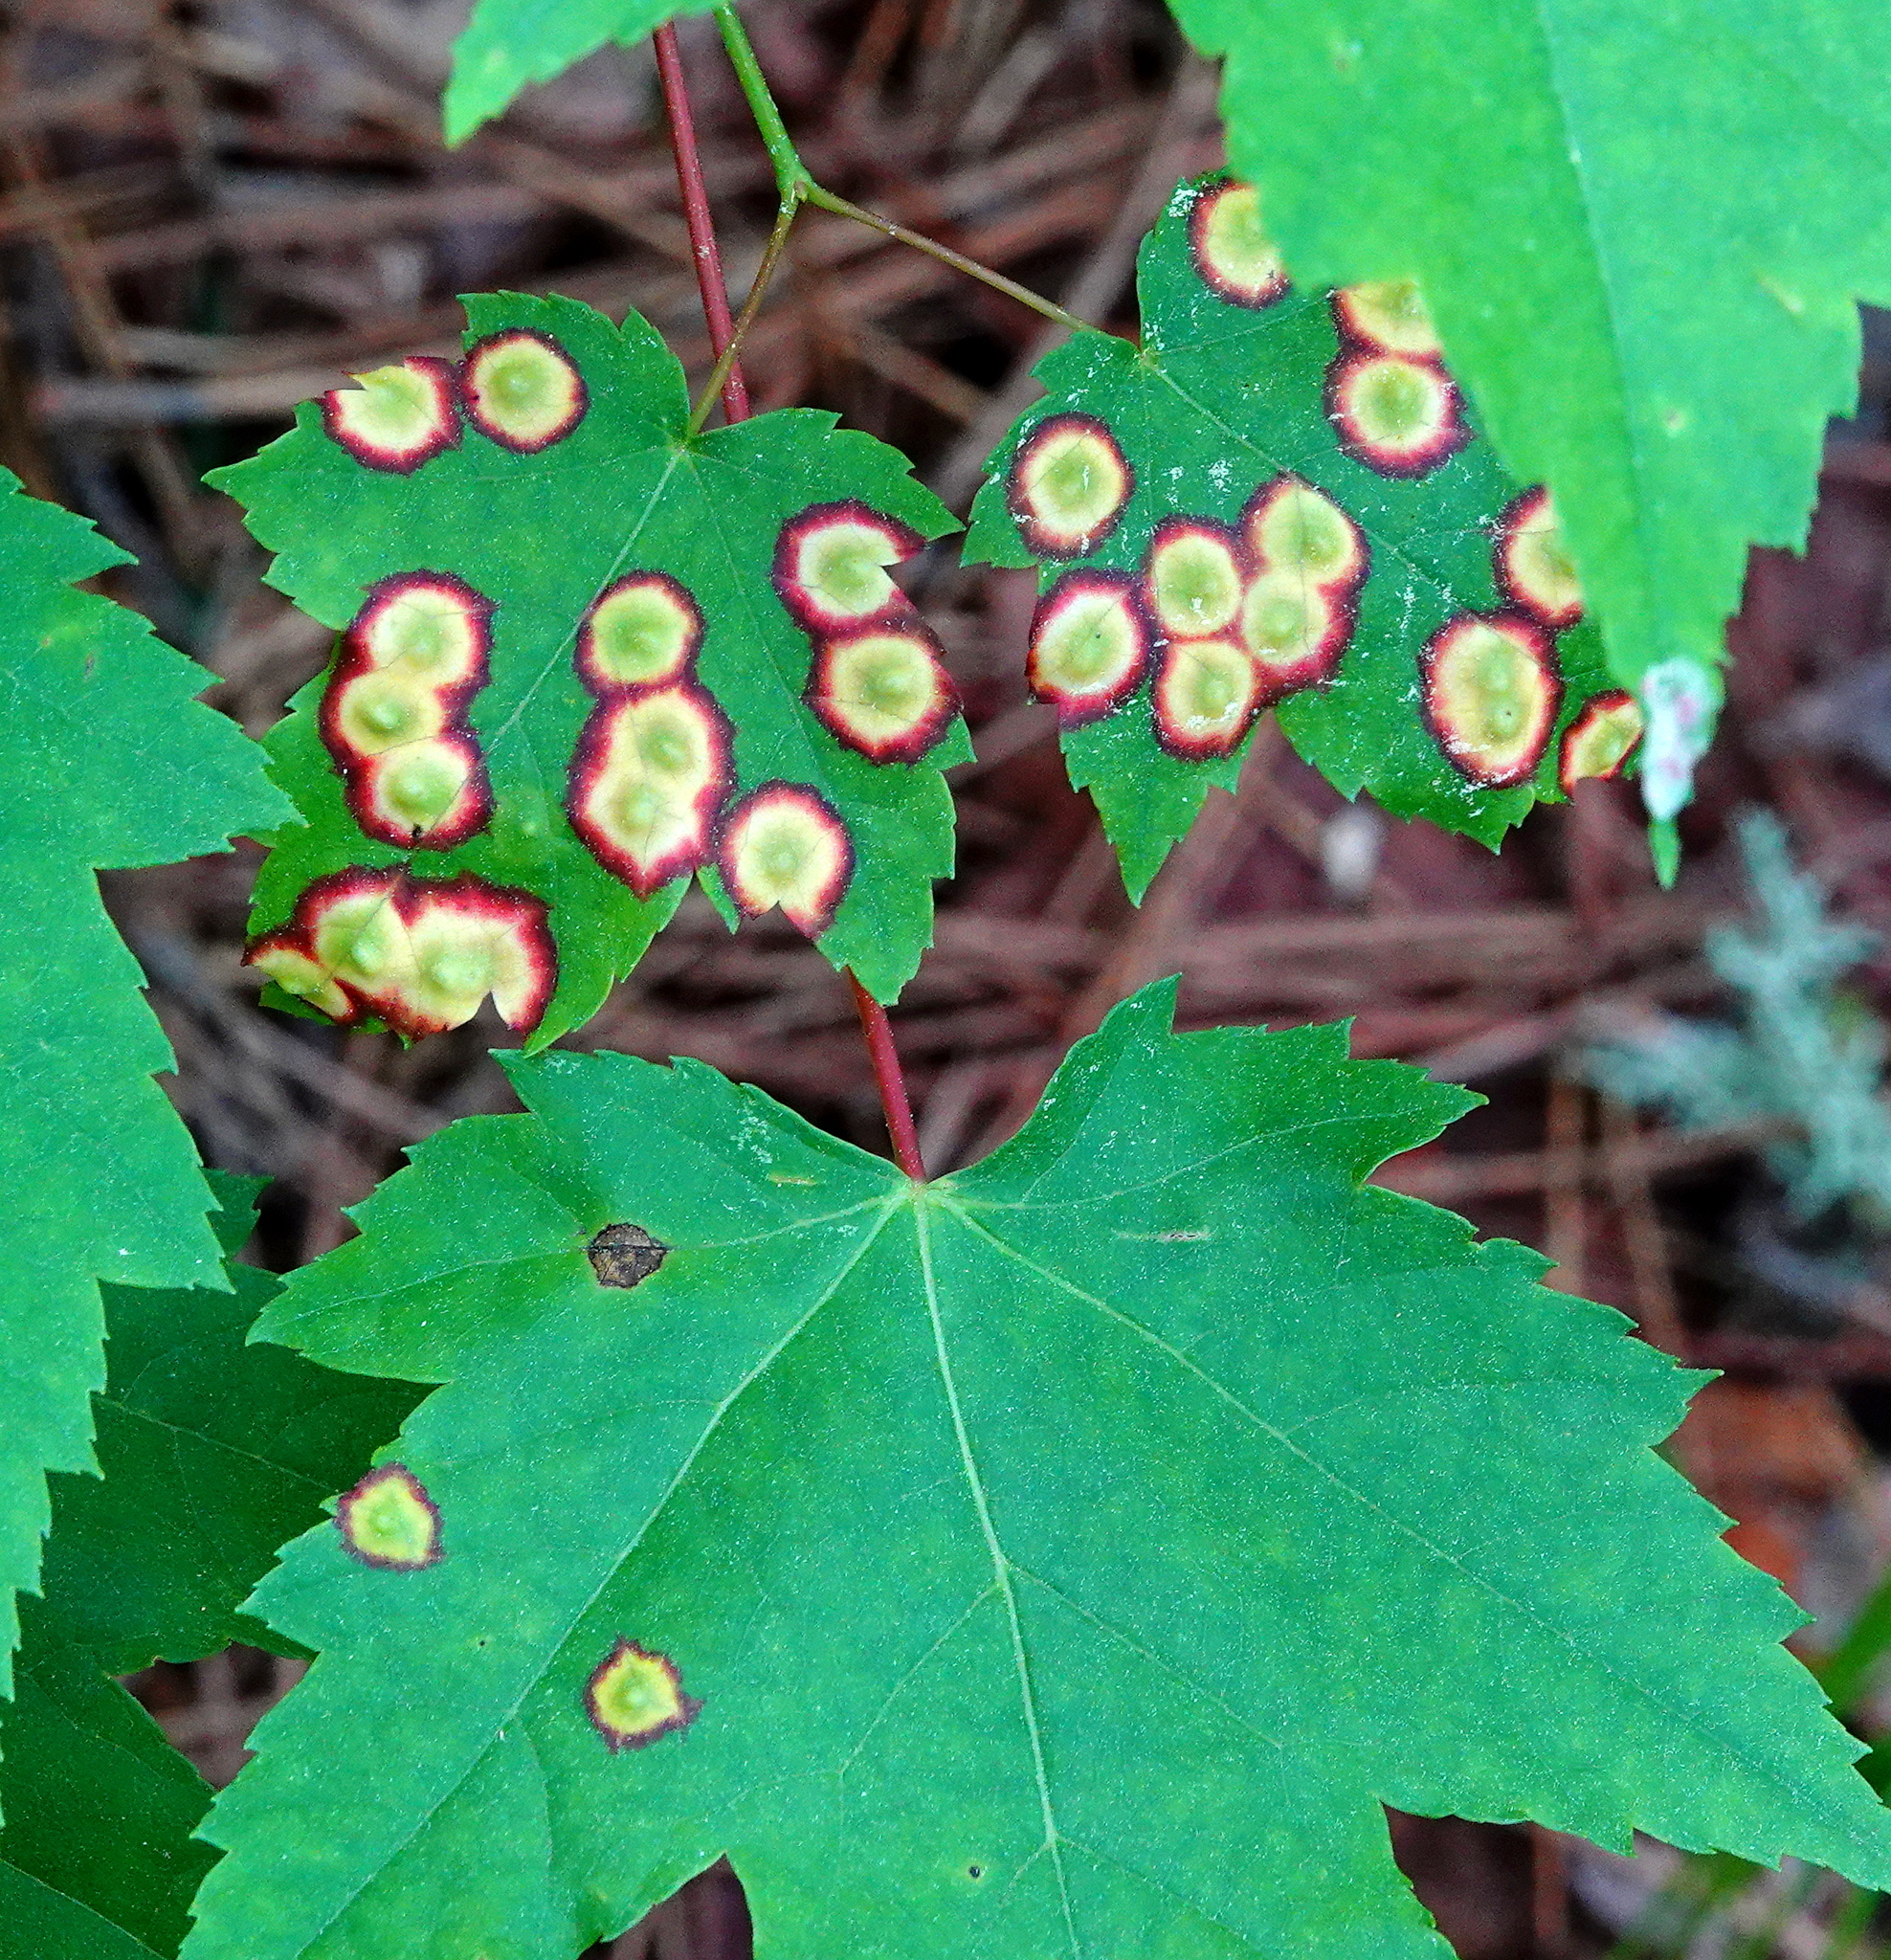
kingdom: Animalia
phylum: Arthropoda
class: Insecta
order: Diptera
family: Cecidomyiidae
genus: Acericecis
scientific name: Acericecis ocellaris
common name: Ocellate gall midge
